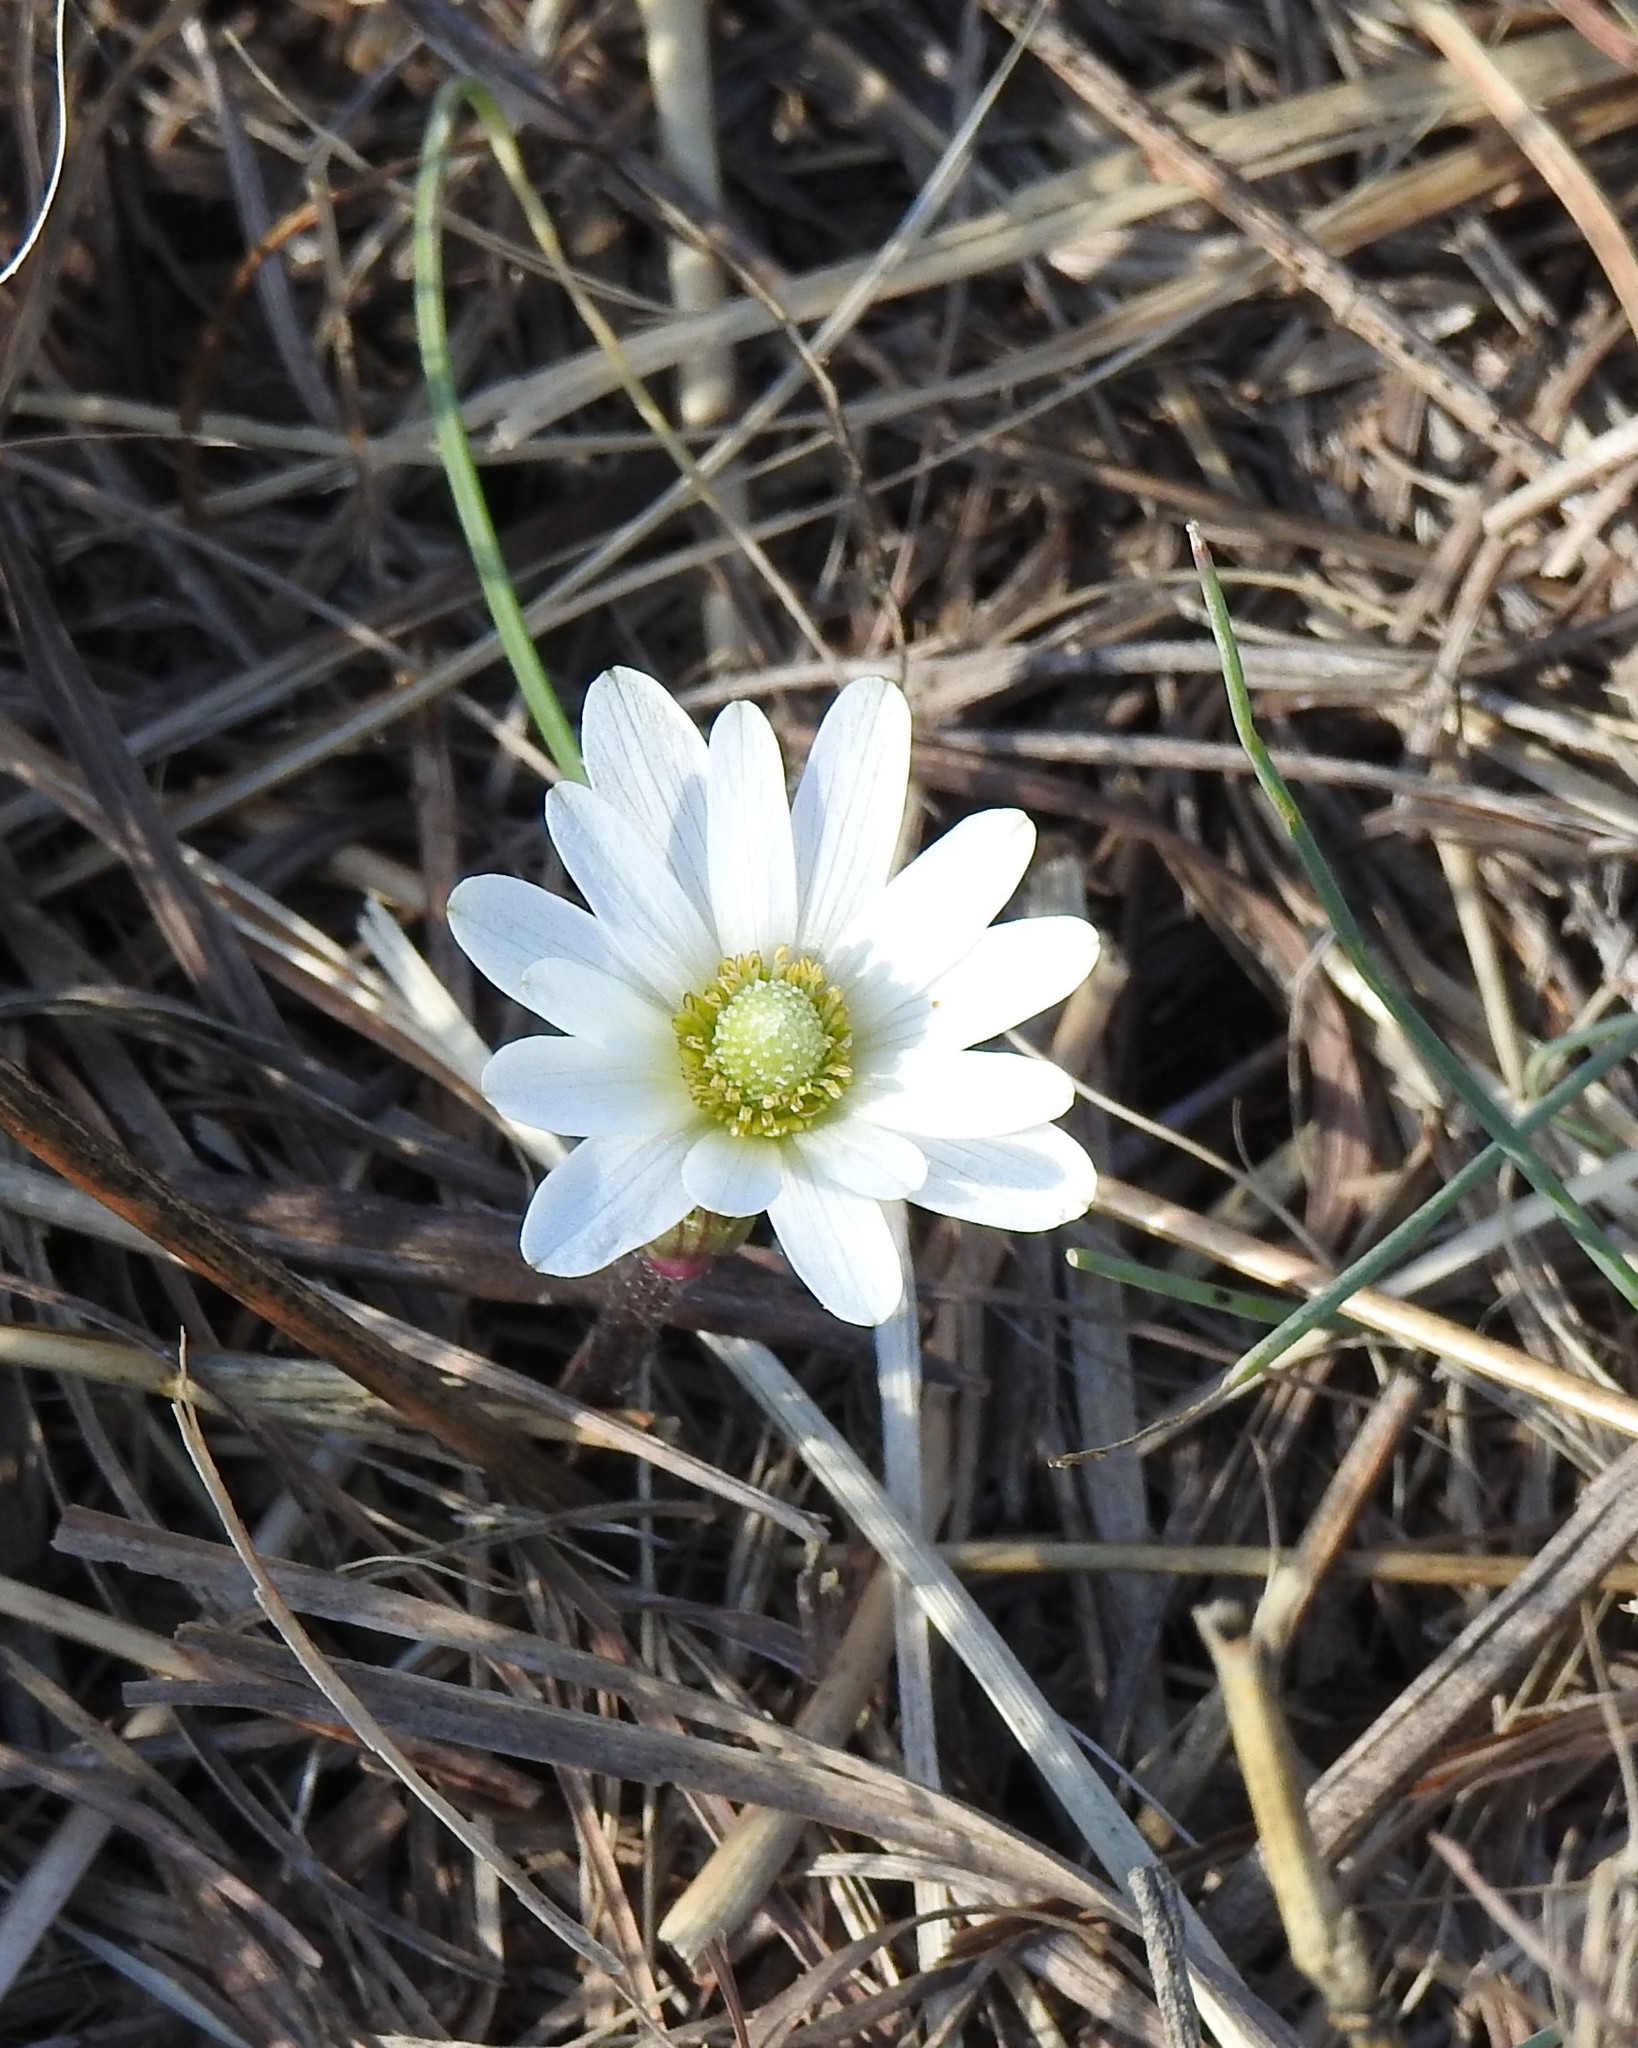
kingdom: Plantae
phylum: Tracheophyta
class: Magnoliopsida
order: Ranunculales
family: Ranunculaceae
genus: Anemone
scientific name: Anemone berlandieri
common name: Ten-petal anemone
